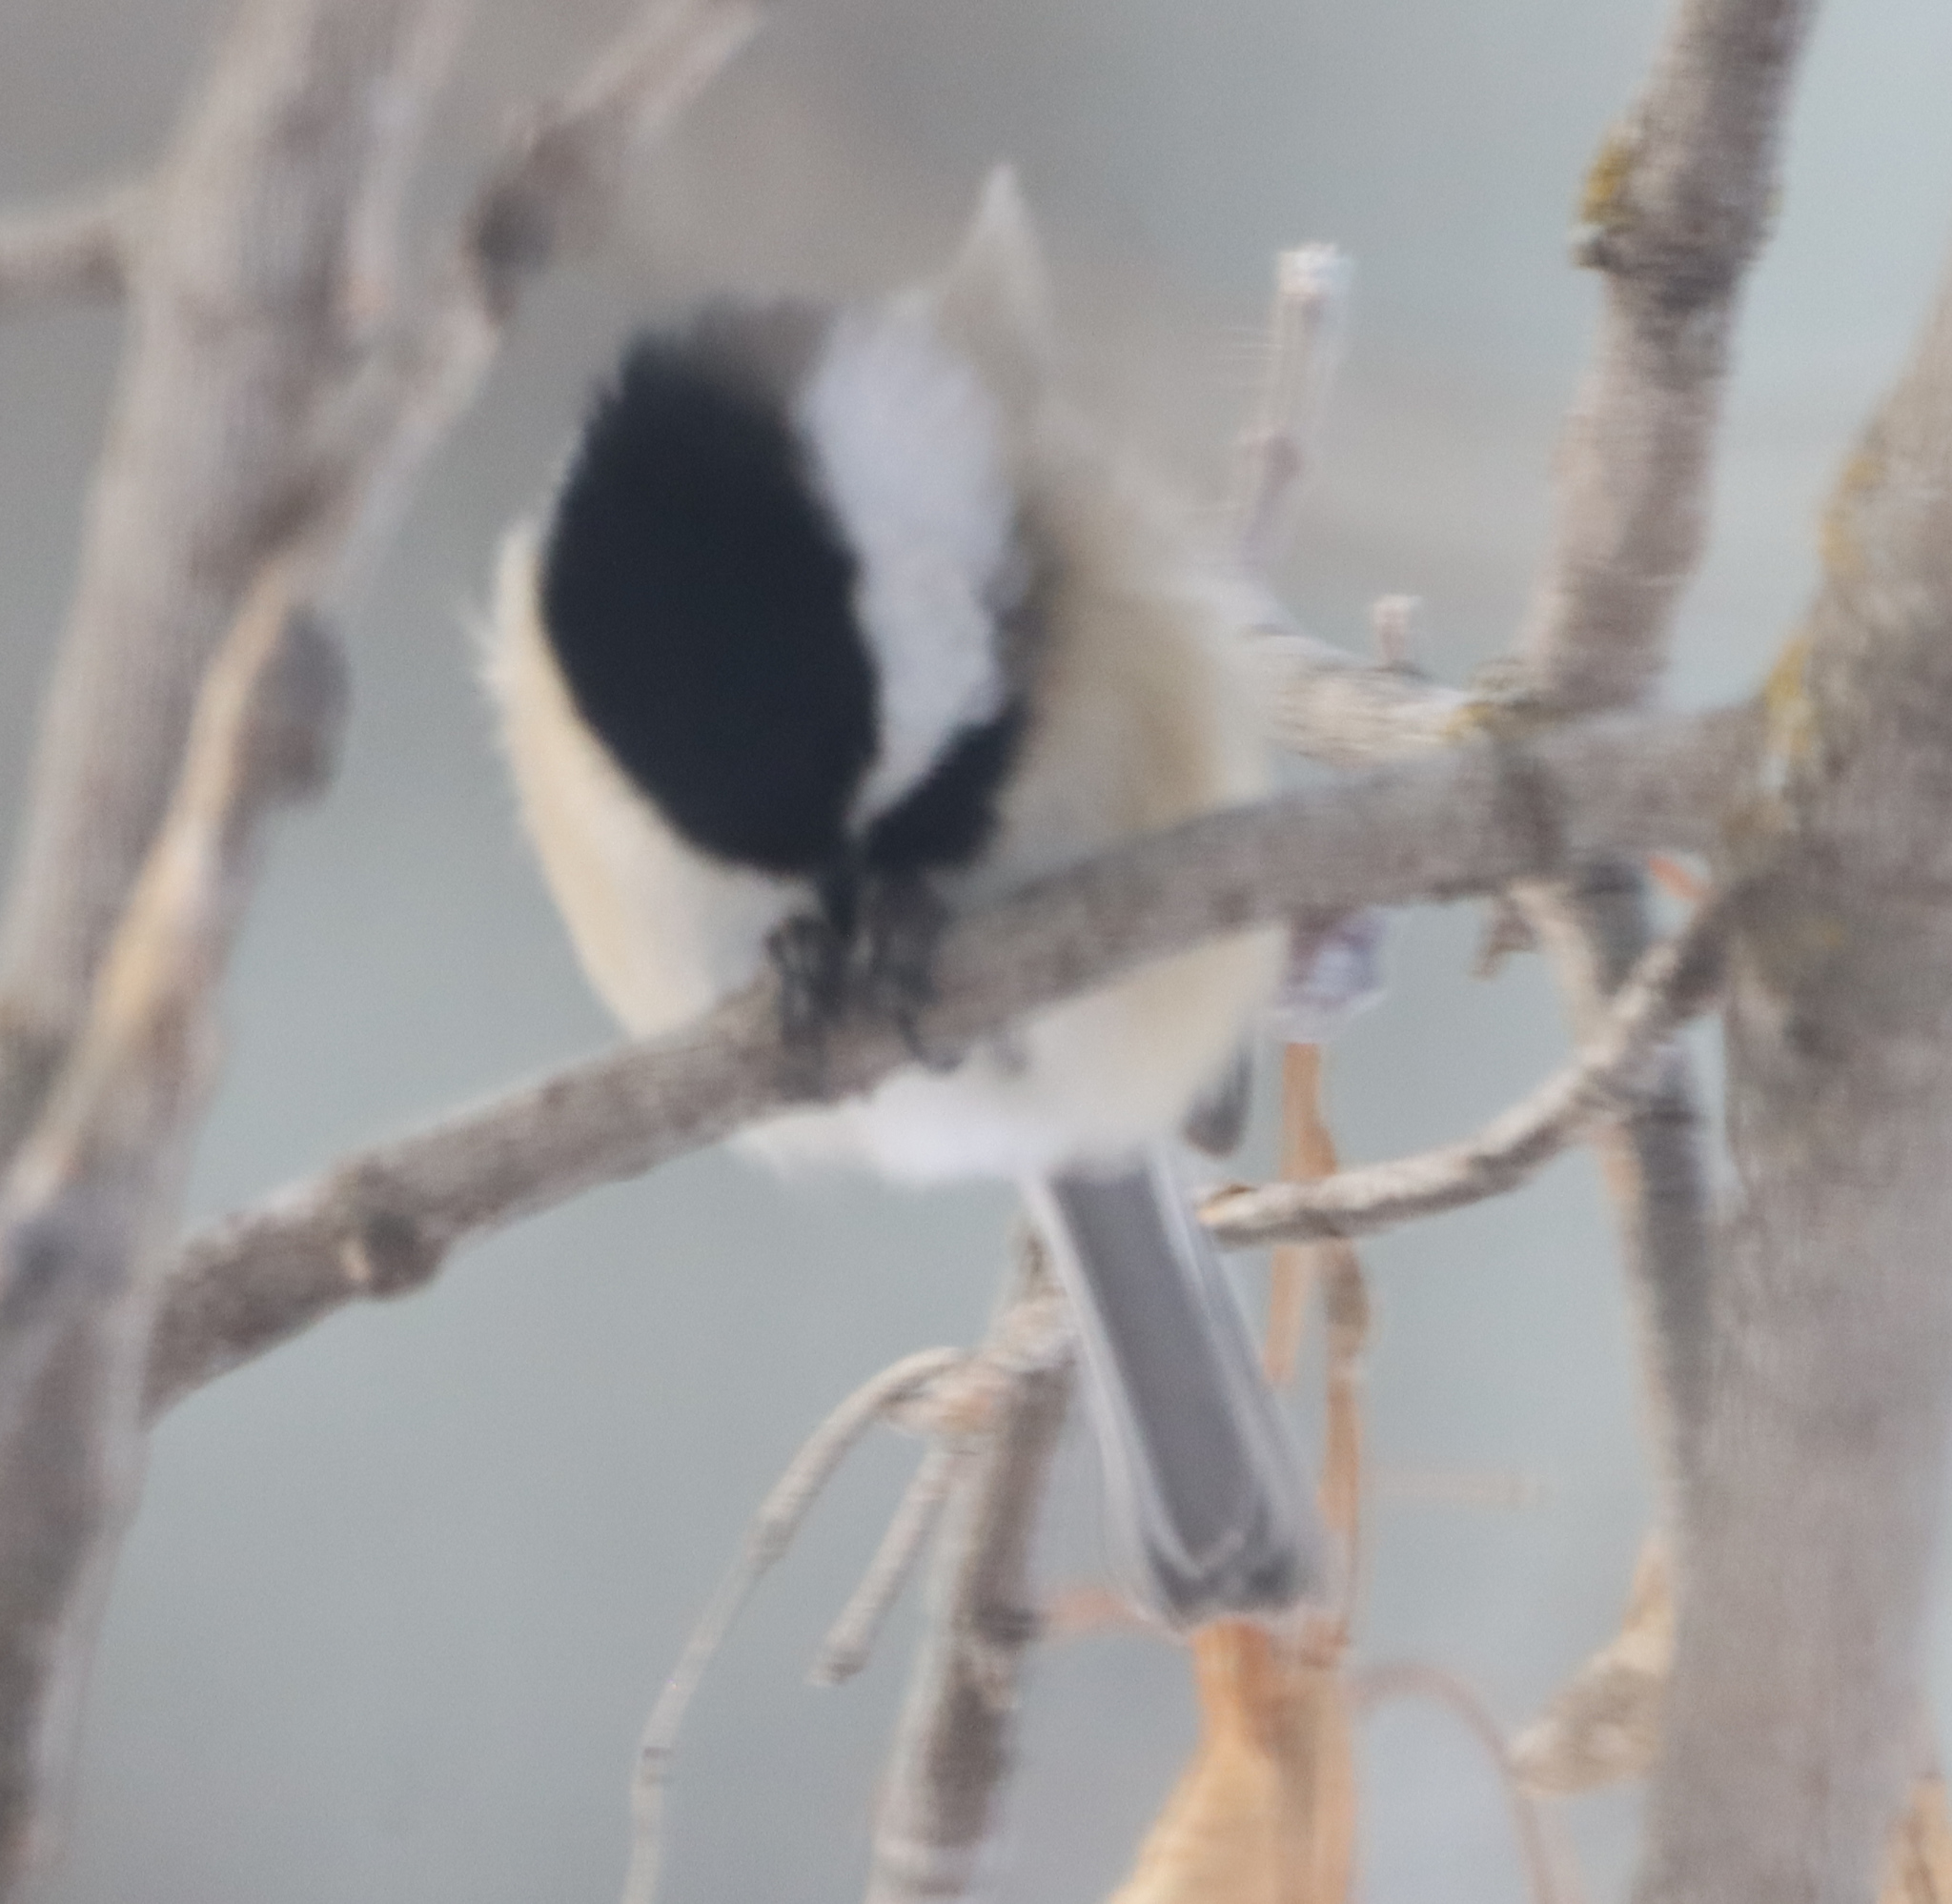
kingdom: Animalia
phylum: Chordata
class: Aves
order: Passeriformes
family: Paridae
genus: Poecile
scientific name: Poecile atricapillus
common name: Black-capped chickadee
